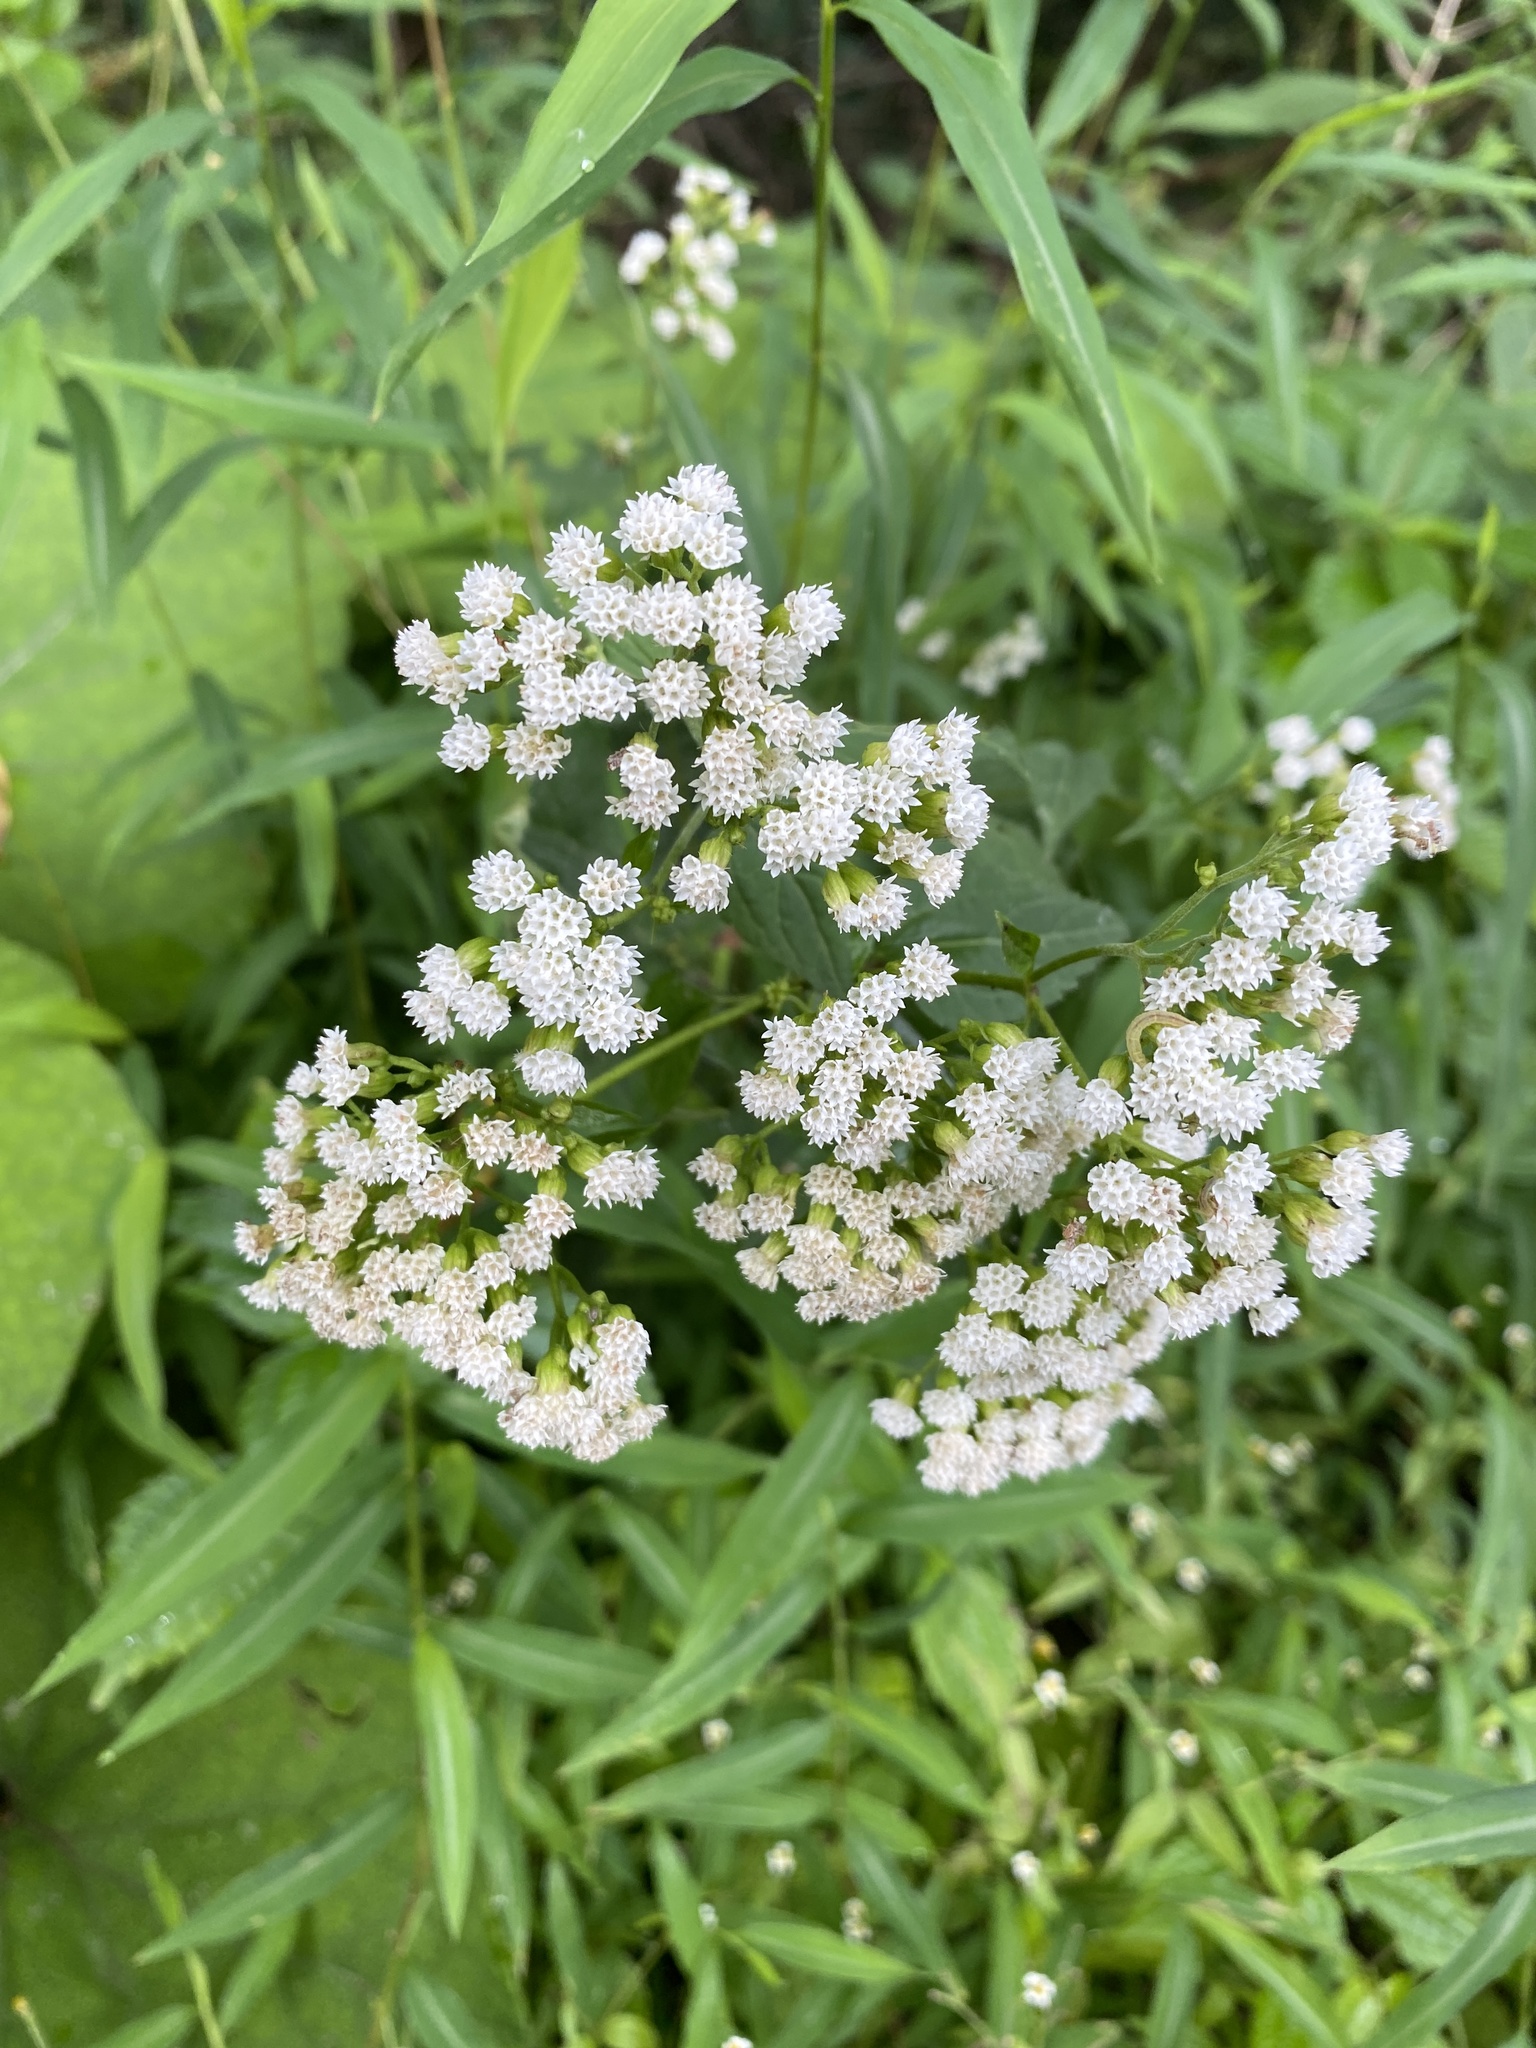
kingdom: Plantae
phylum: Tracheophyta
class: Magnoliopsida
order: Asterales
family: Asteraceae
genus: Ageratina
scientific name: Ageratina altissima
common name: White snakeroot
